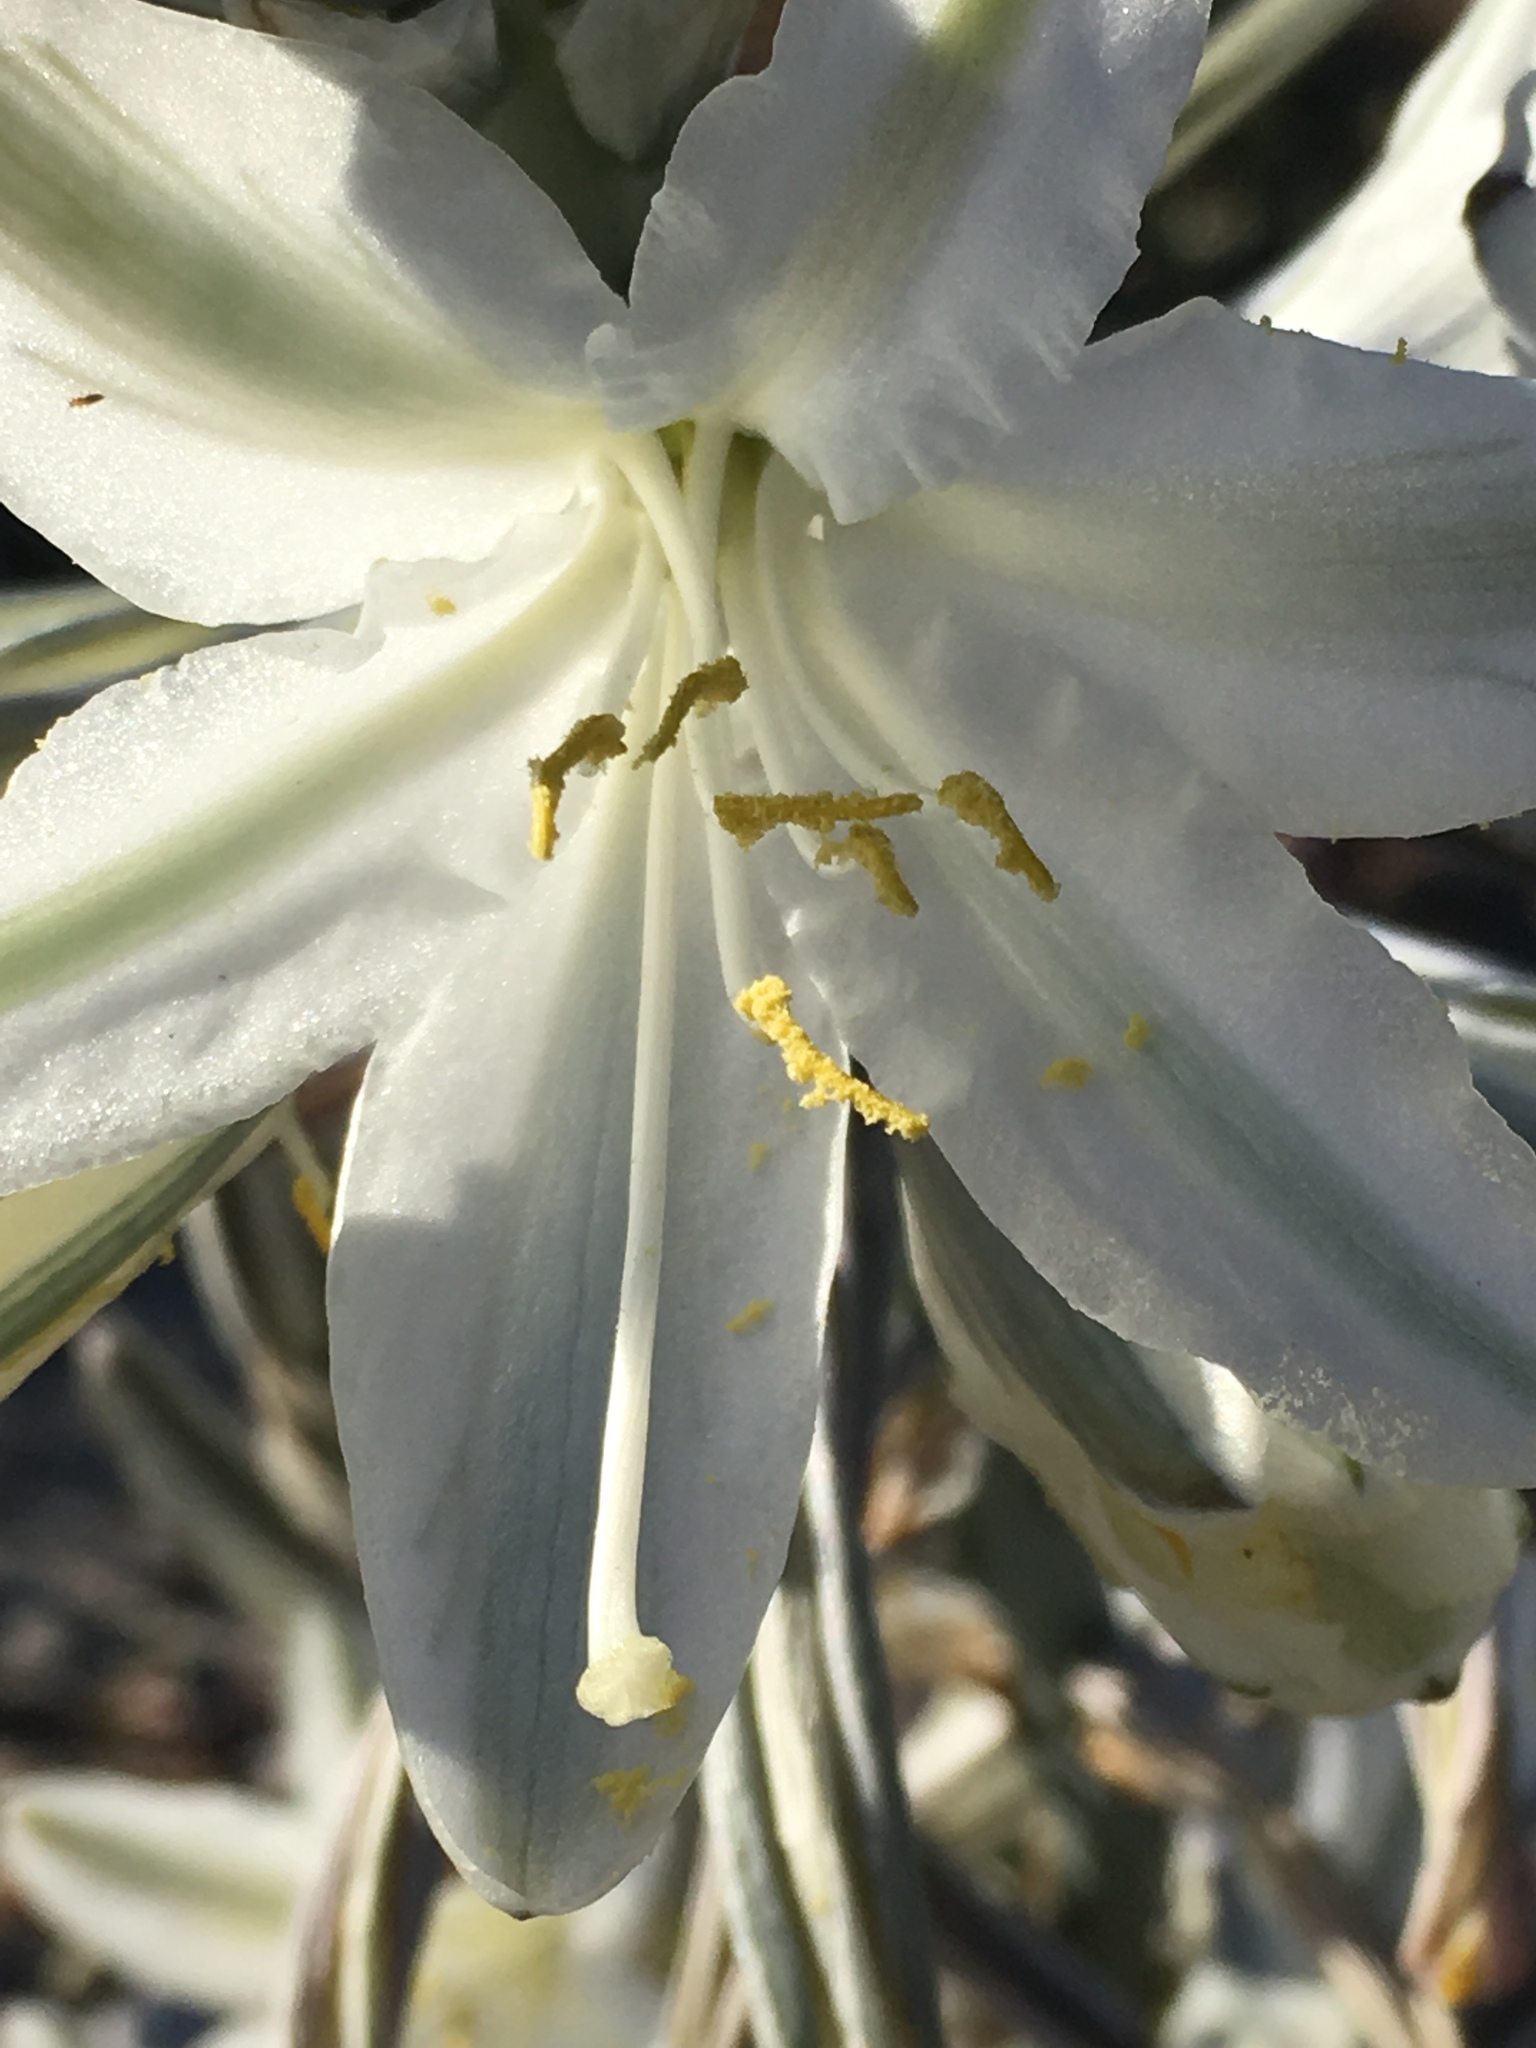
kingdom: Plantae
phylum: Tracheophyta
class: Liliopsida
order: Asparagales
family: Asparagaceae
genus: Hesperocallis
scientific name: Hesperocallis undulata
